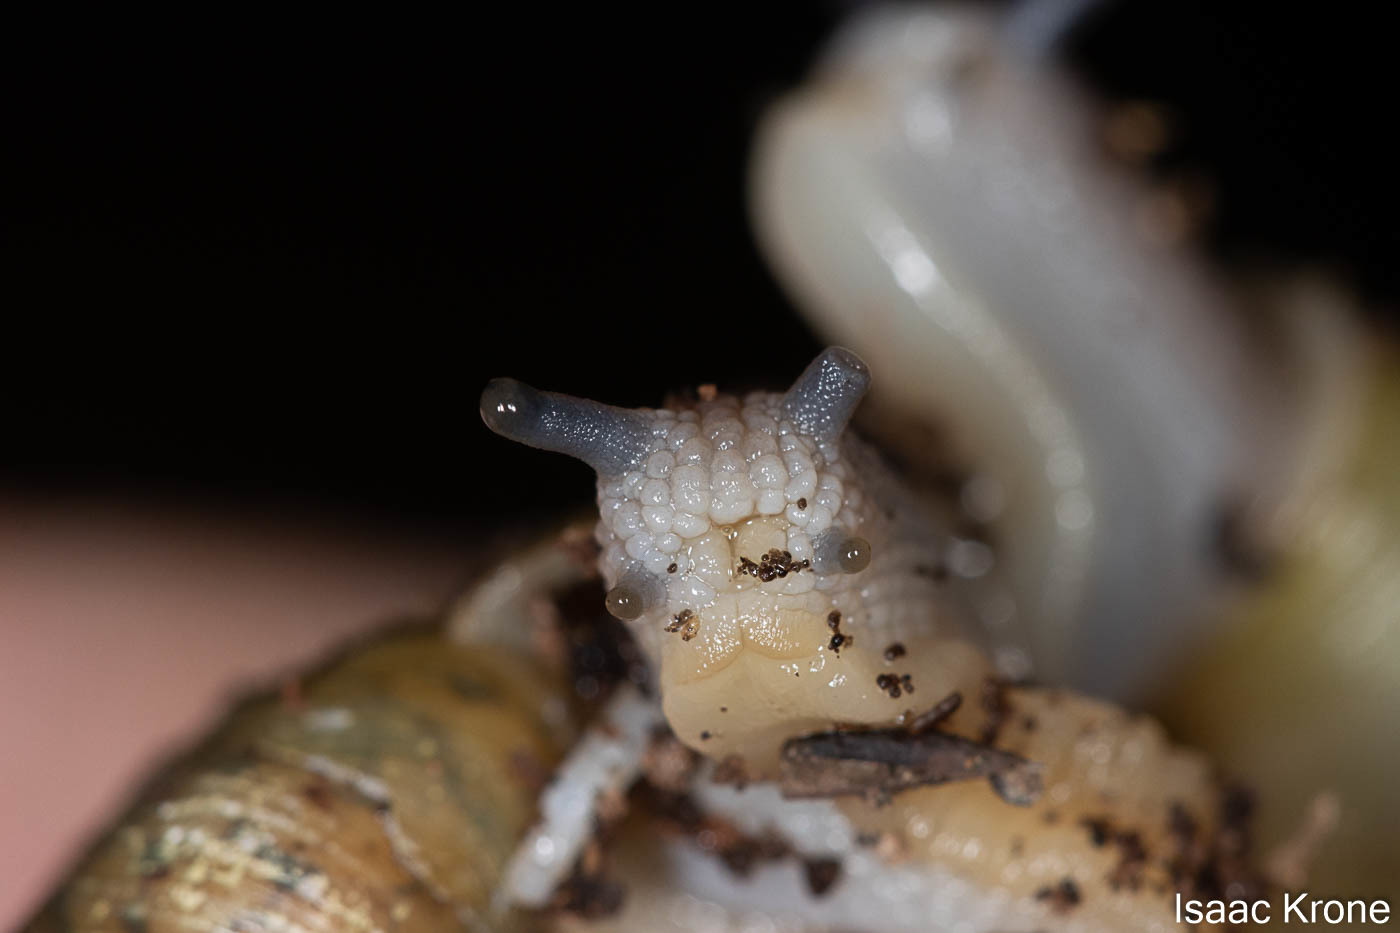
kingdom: Animalia
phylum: Mollusca
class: Gastropoda
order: Stylommatophora
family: Haplotrematidae
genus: Haplotrema
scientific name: Haplotrema minimum
